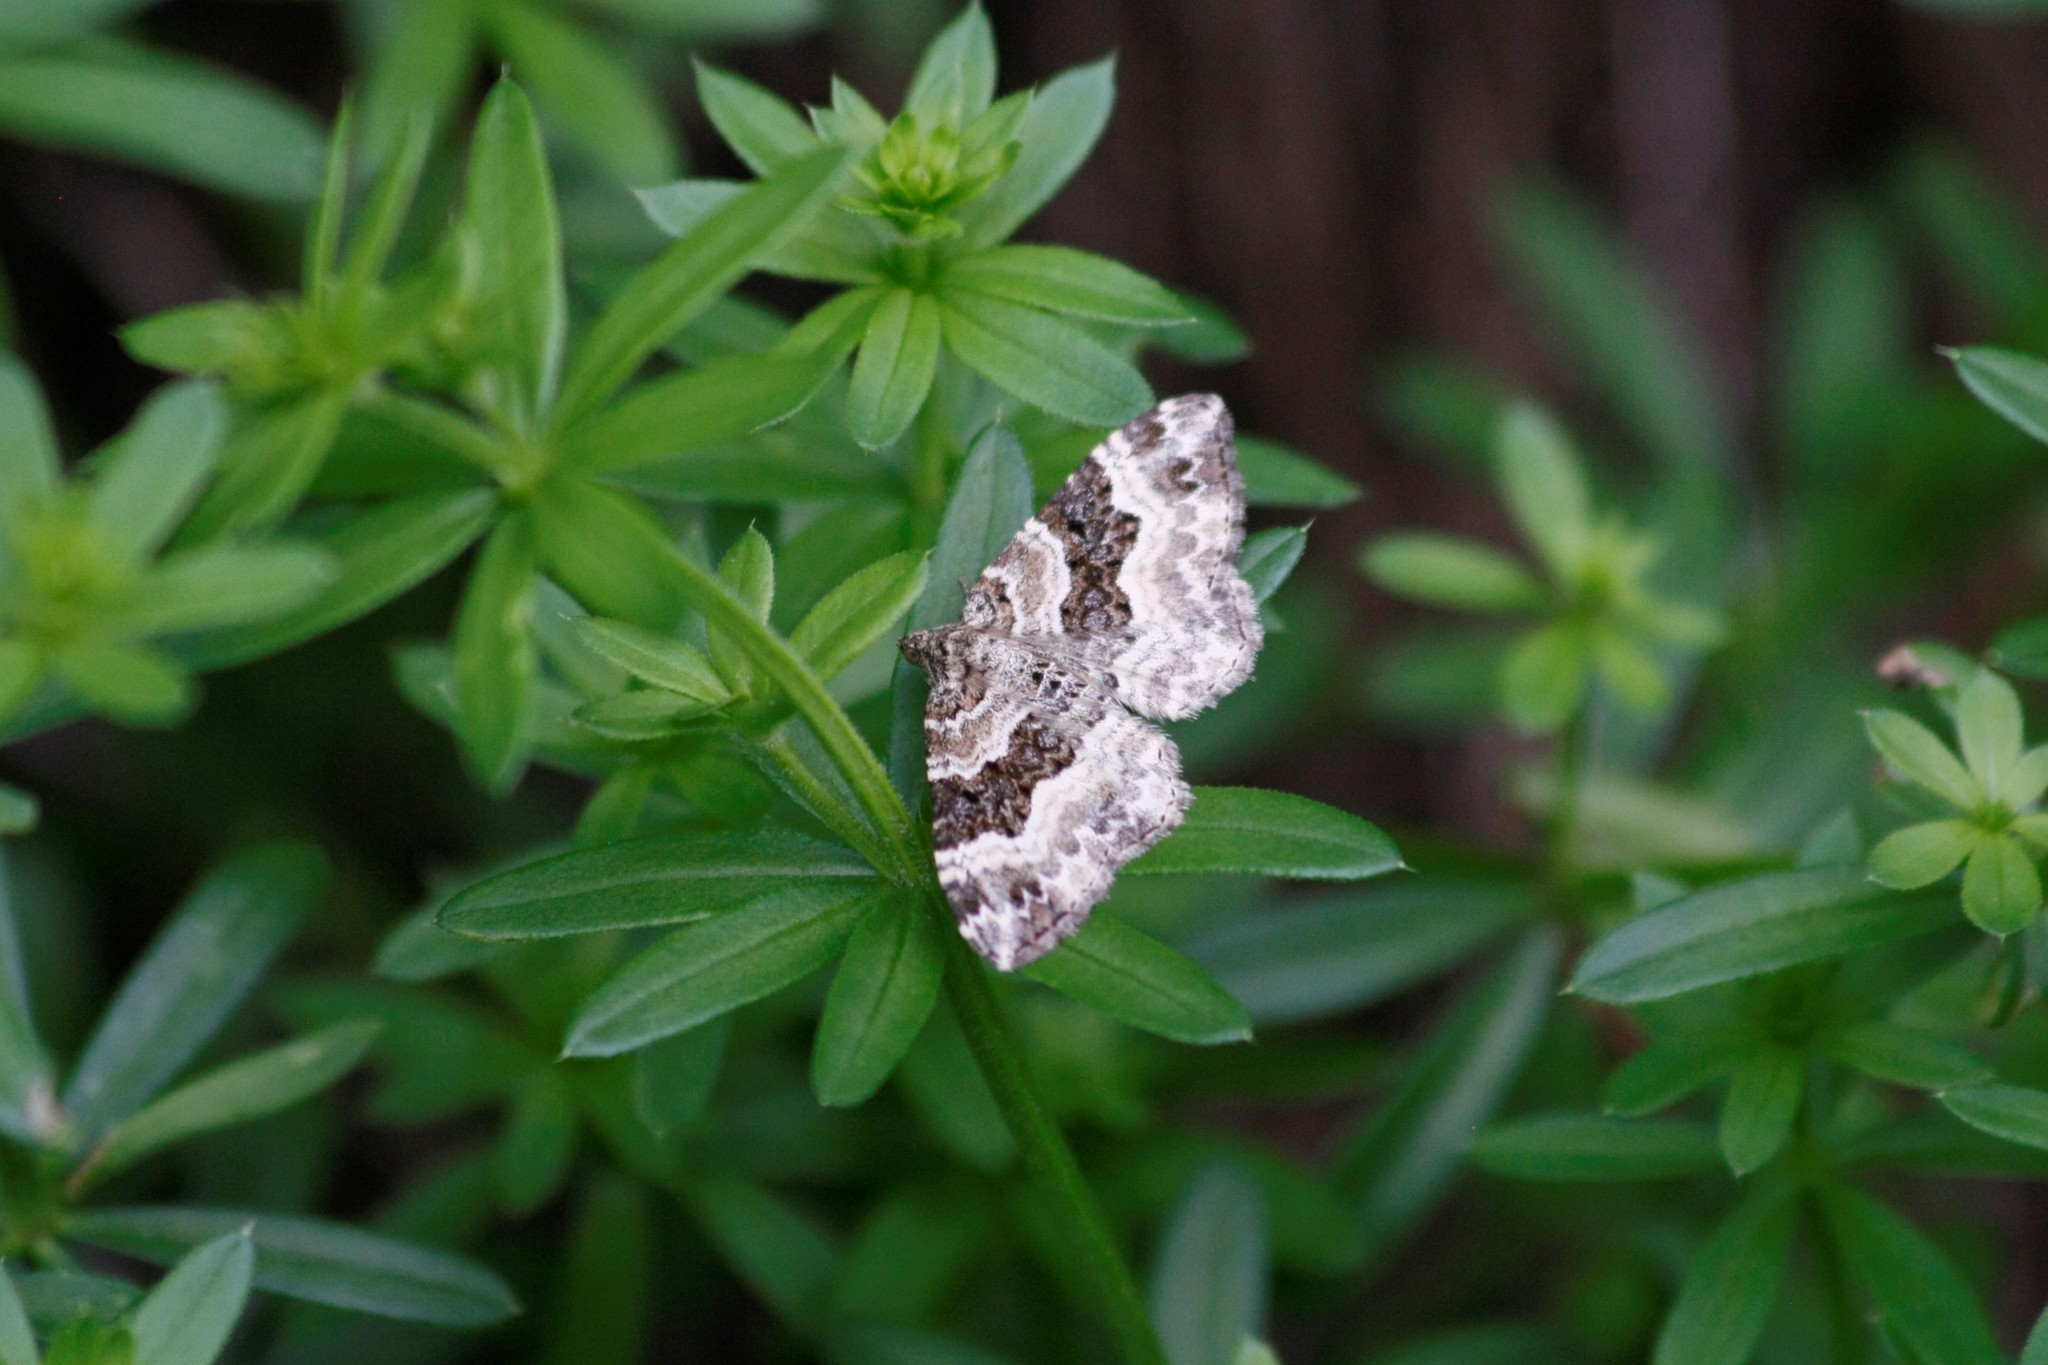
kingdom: Animalia
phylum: Arthropoda
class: Insecta
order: Lepidoptera
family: Geometridae
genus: Epirrhoe
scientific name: Epirrhoe alternata
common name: Common carpet
